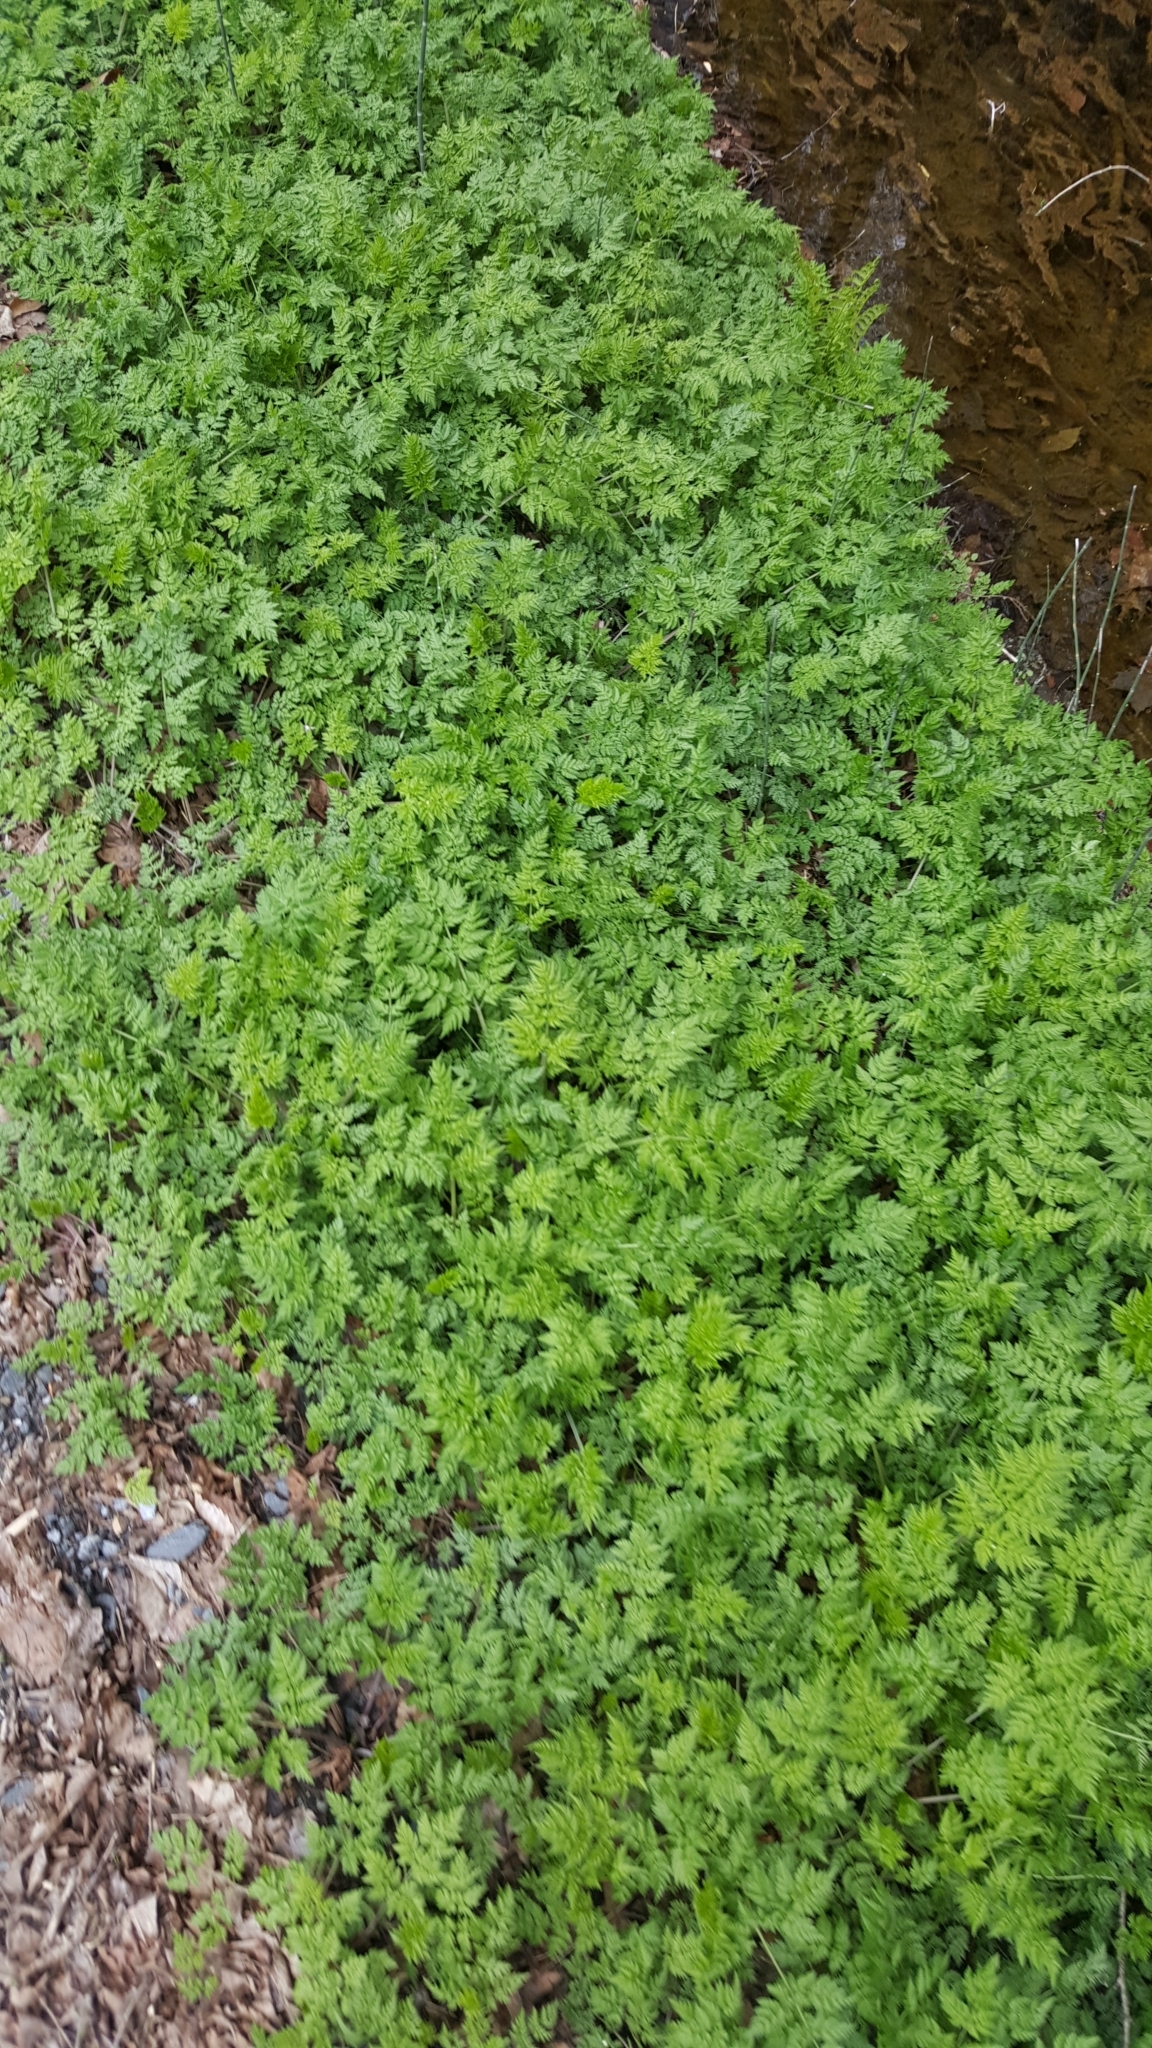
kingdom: Plantae
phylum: Tracheophyta
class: Magnoliopsida
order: Apiales
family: Apiaceae
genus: Anthriscus
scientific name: Anthriscus sylvestris
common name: Cow parsley
